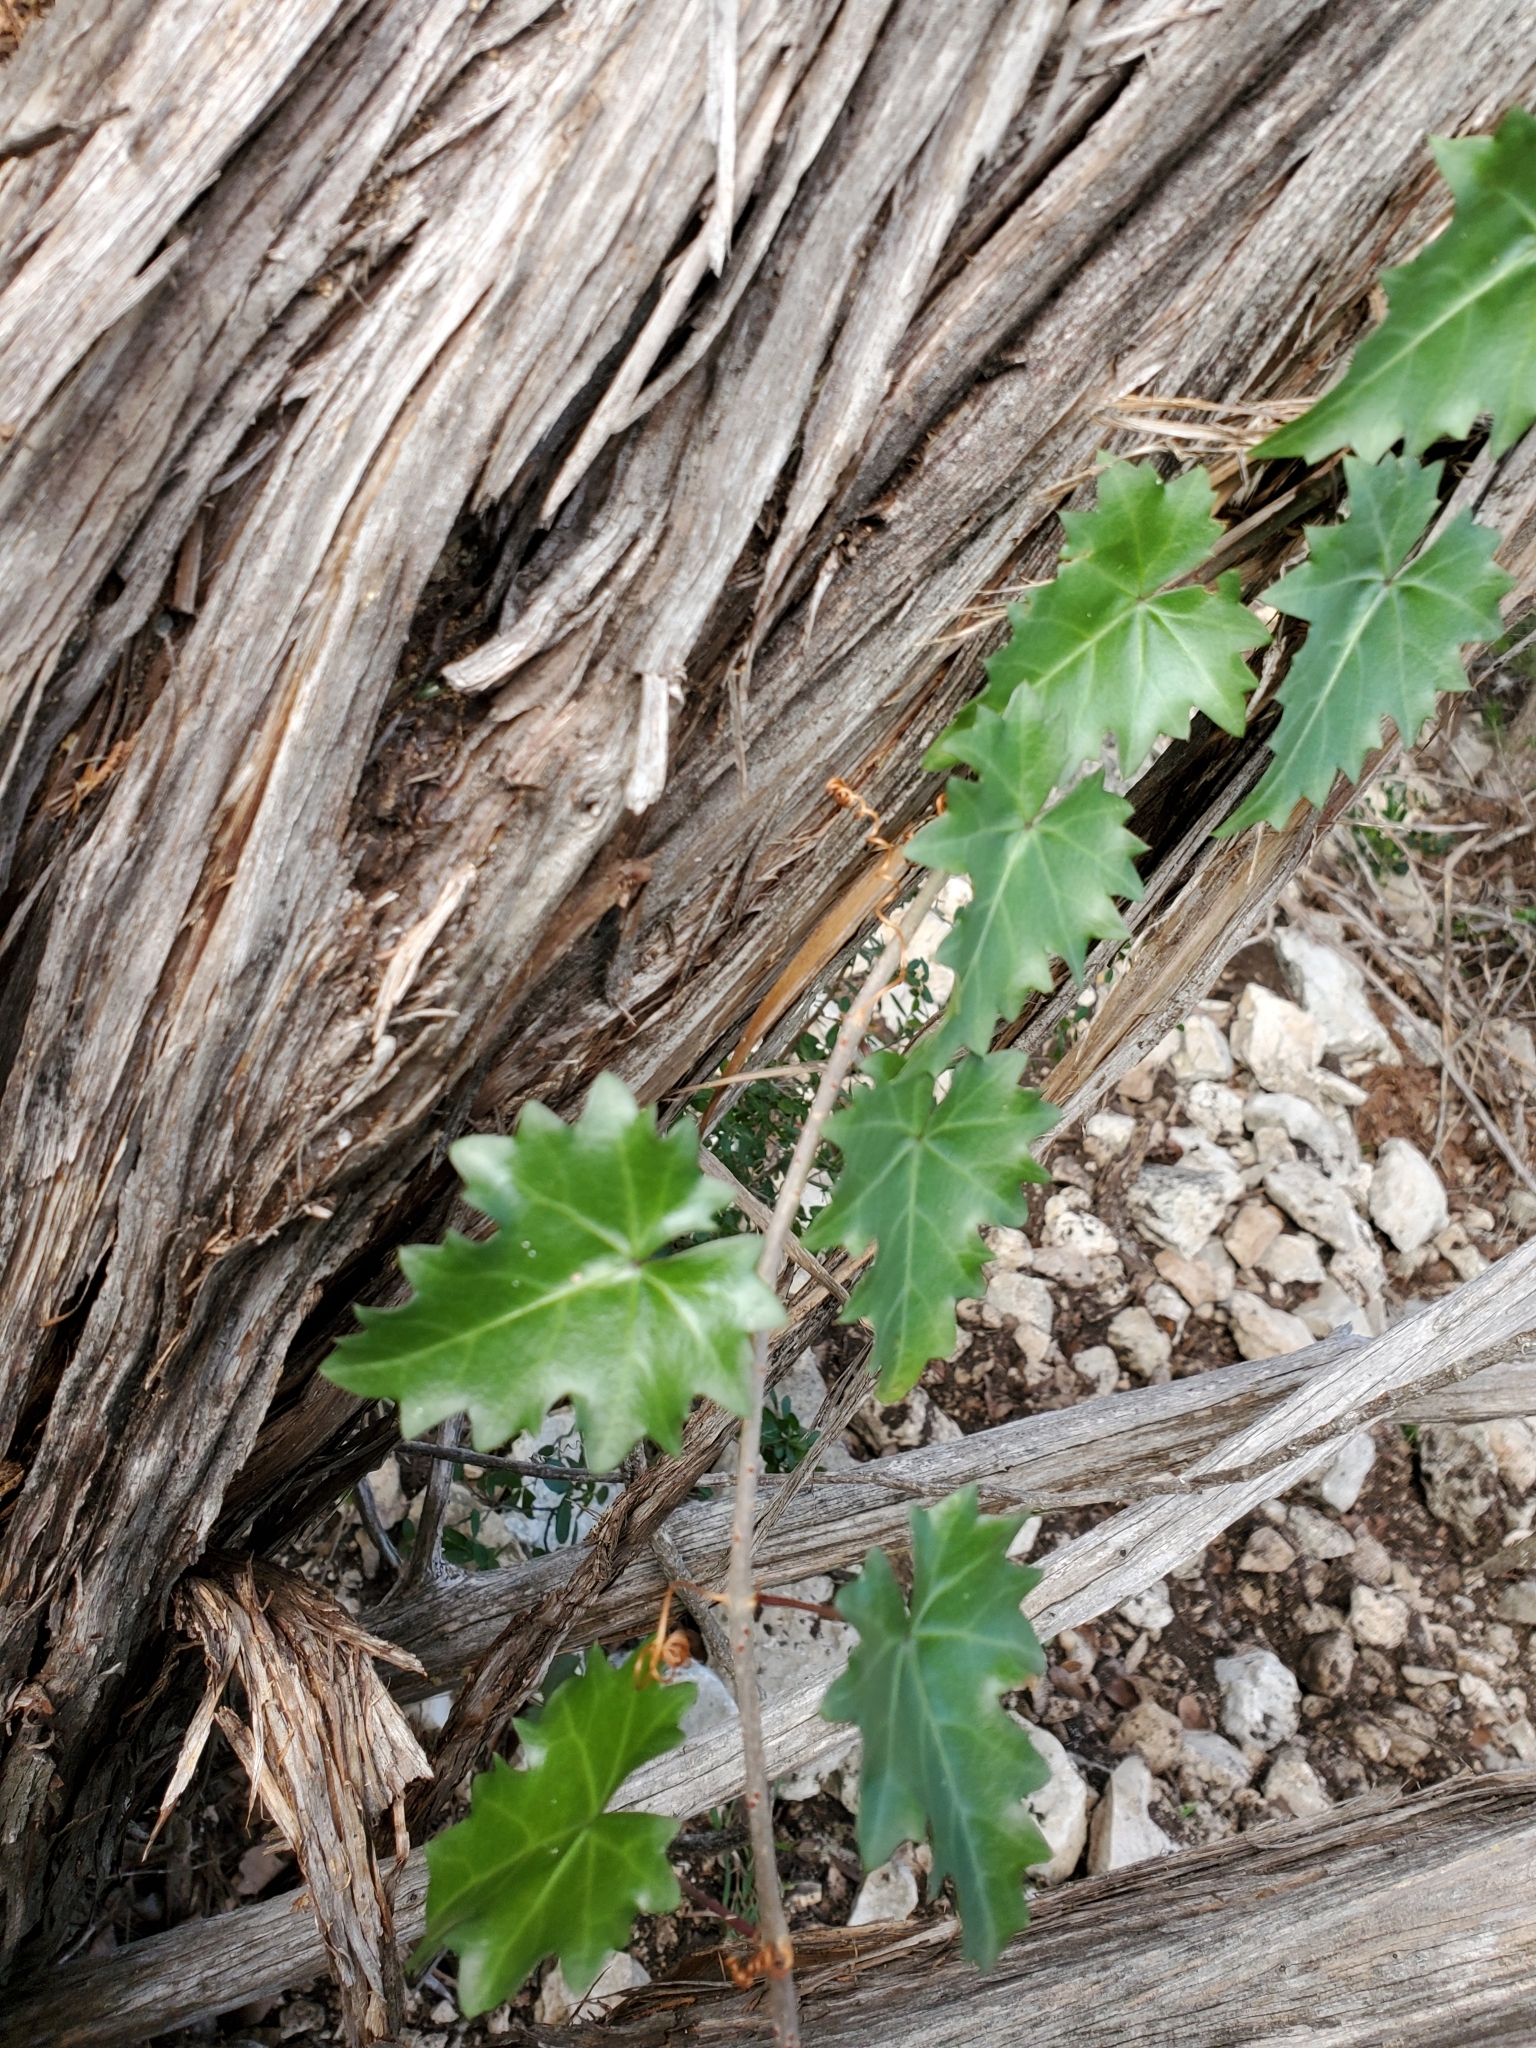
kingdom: Plantae
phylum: Tracheophyta
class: Magnoliopsida
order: Vitales
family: Vitaceae
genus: Cissus
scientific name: Cissus trifoliata
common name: Vine-sorrel
